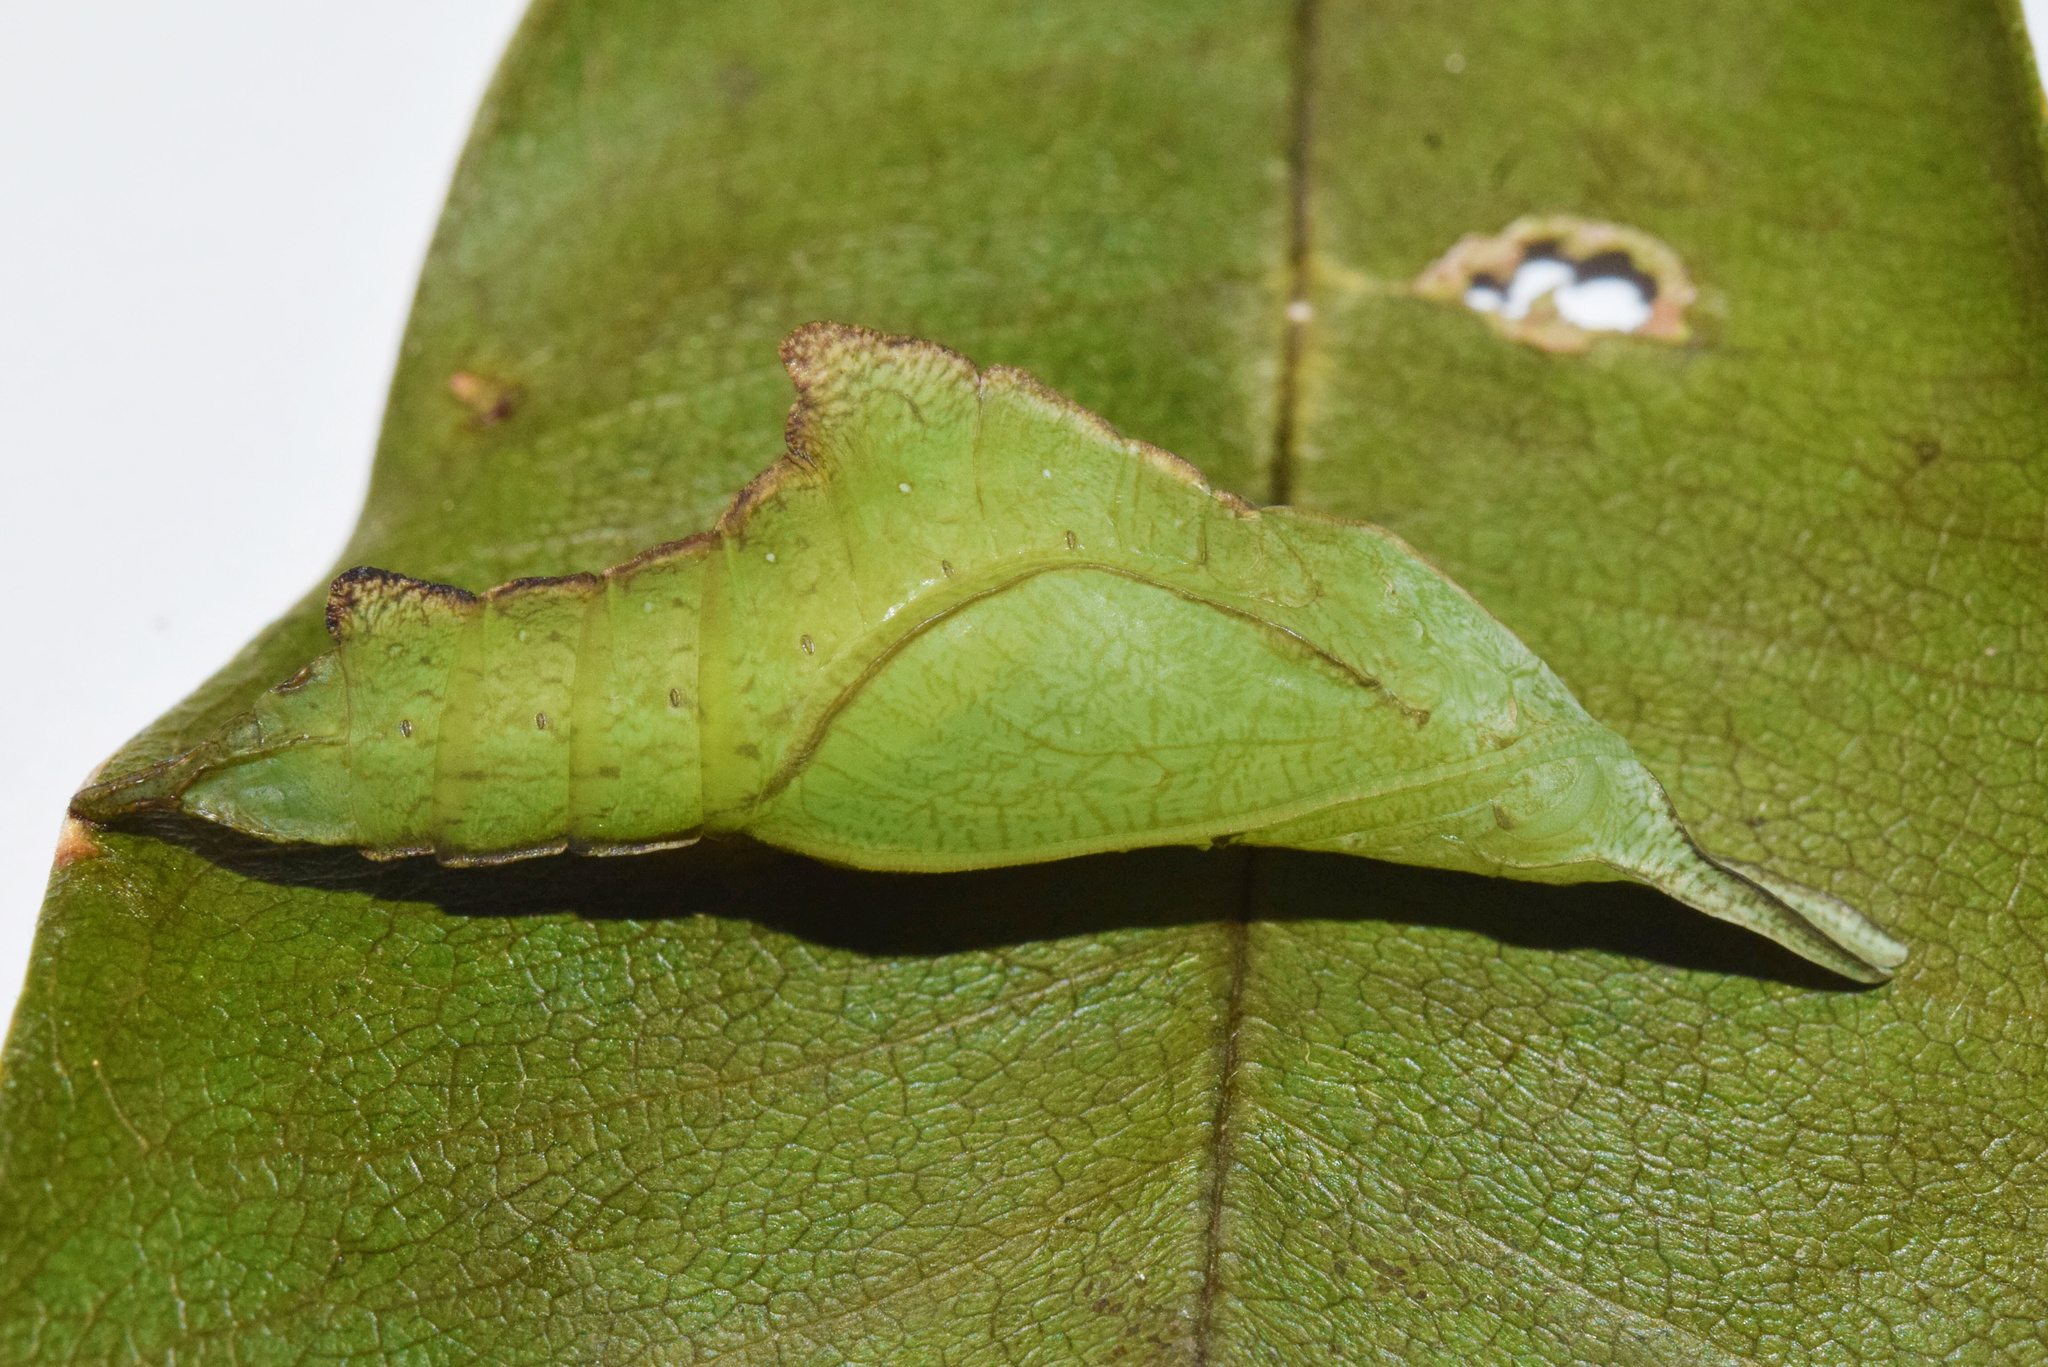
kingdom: Animalia
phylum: Arthropoda
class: Insecta
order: Lepidoptera
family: Nymphalidae
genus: Chloropoea
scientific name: Chloropoea eurytus
